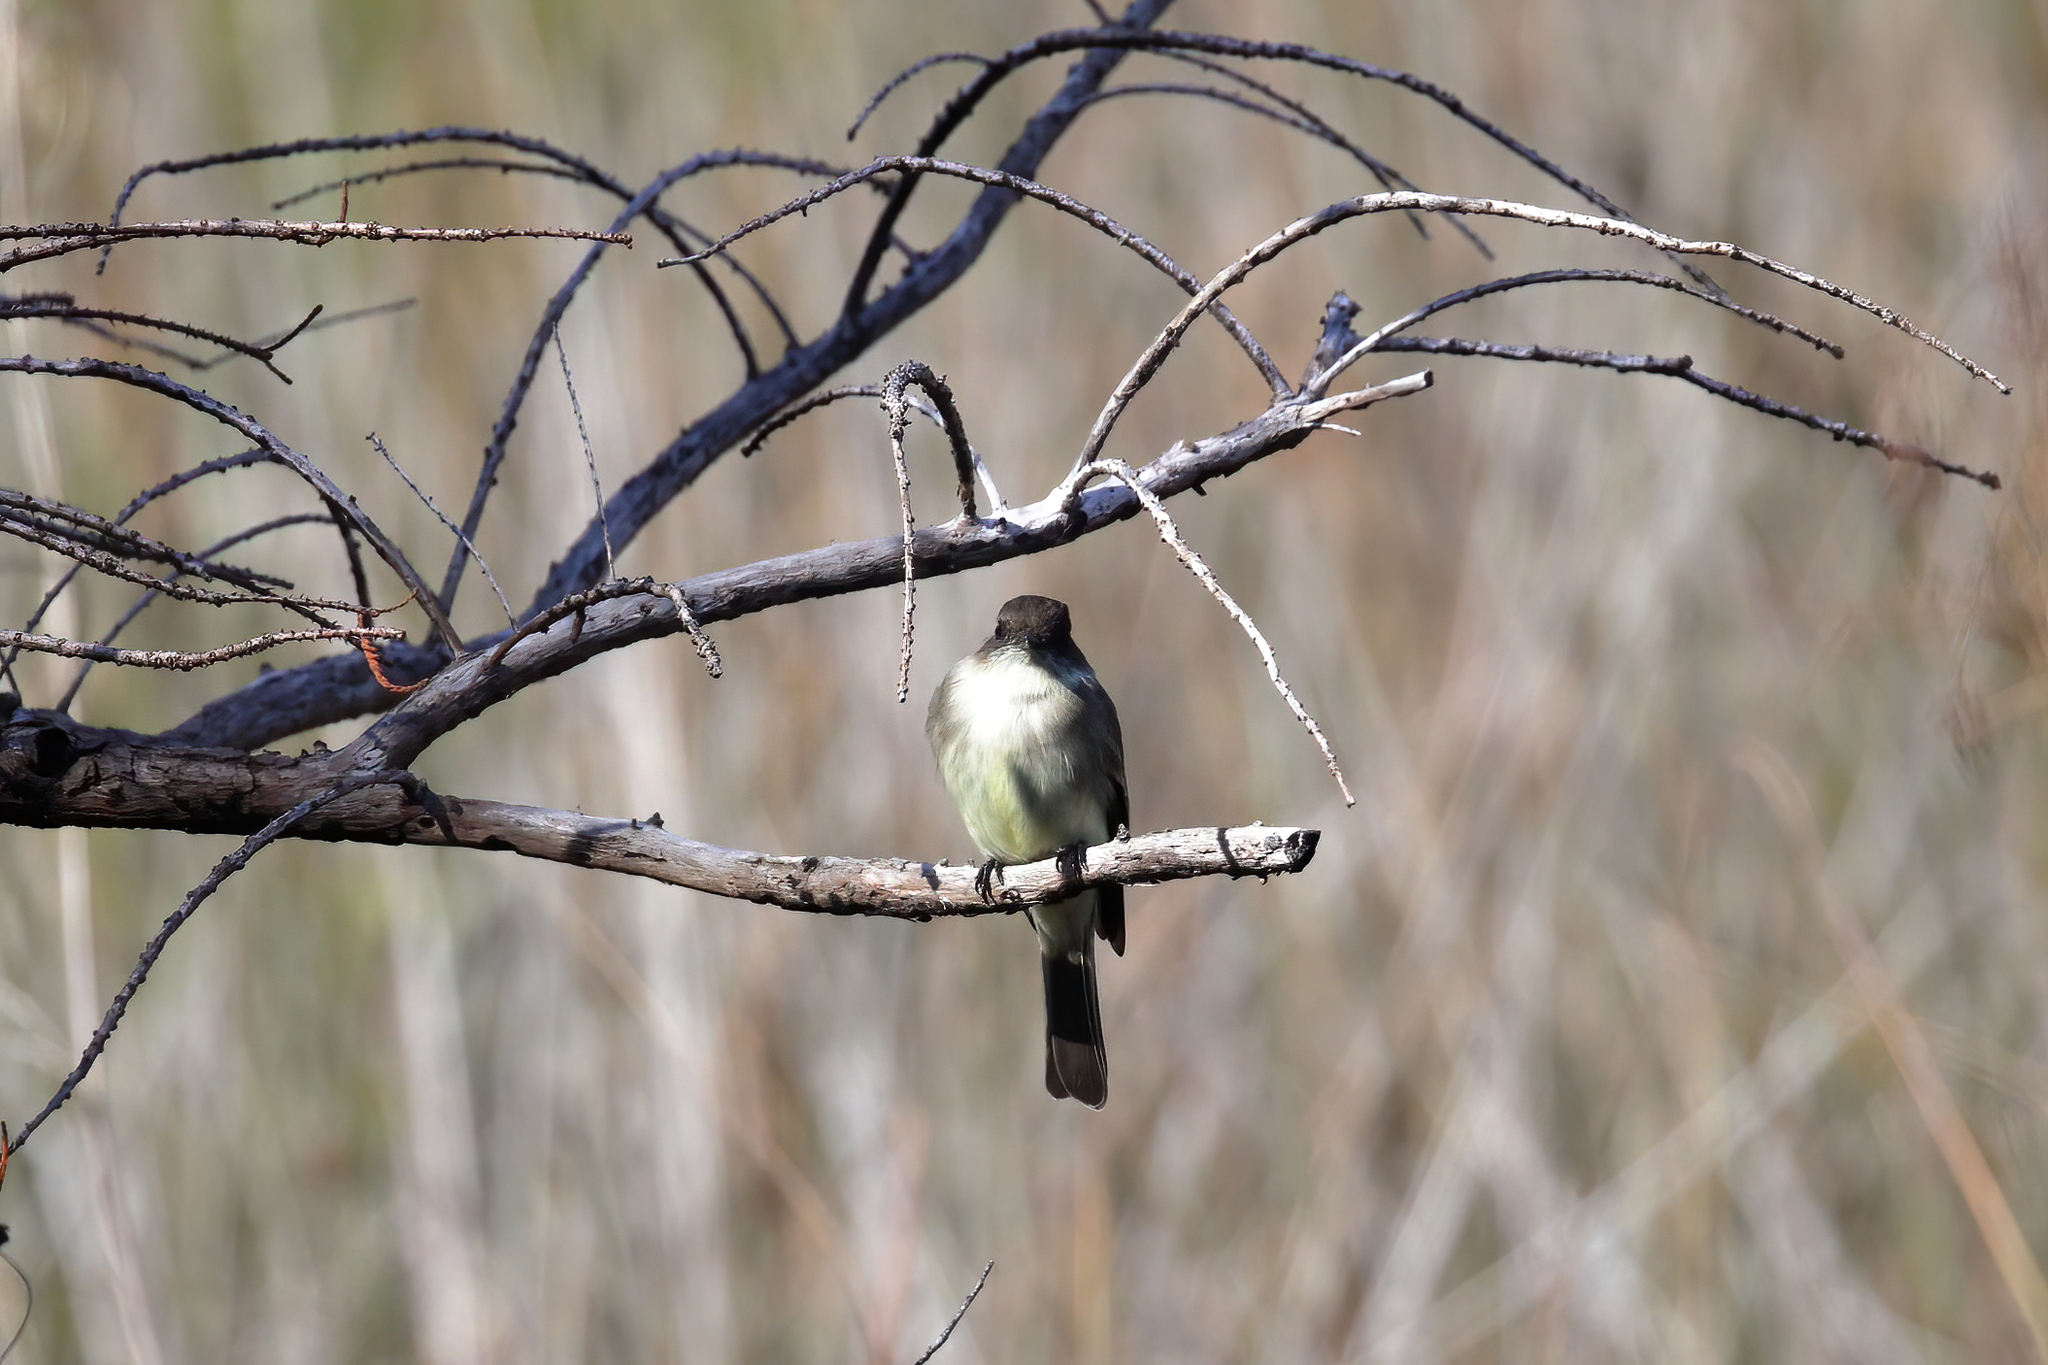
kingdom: Animalia
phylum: Chordata
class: Aves
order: Passeriformes
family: Tyrannidae
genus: Sayornis
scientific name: Sayornis phoebe
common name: Eastern phoebe
